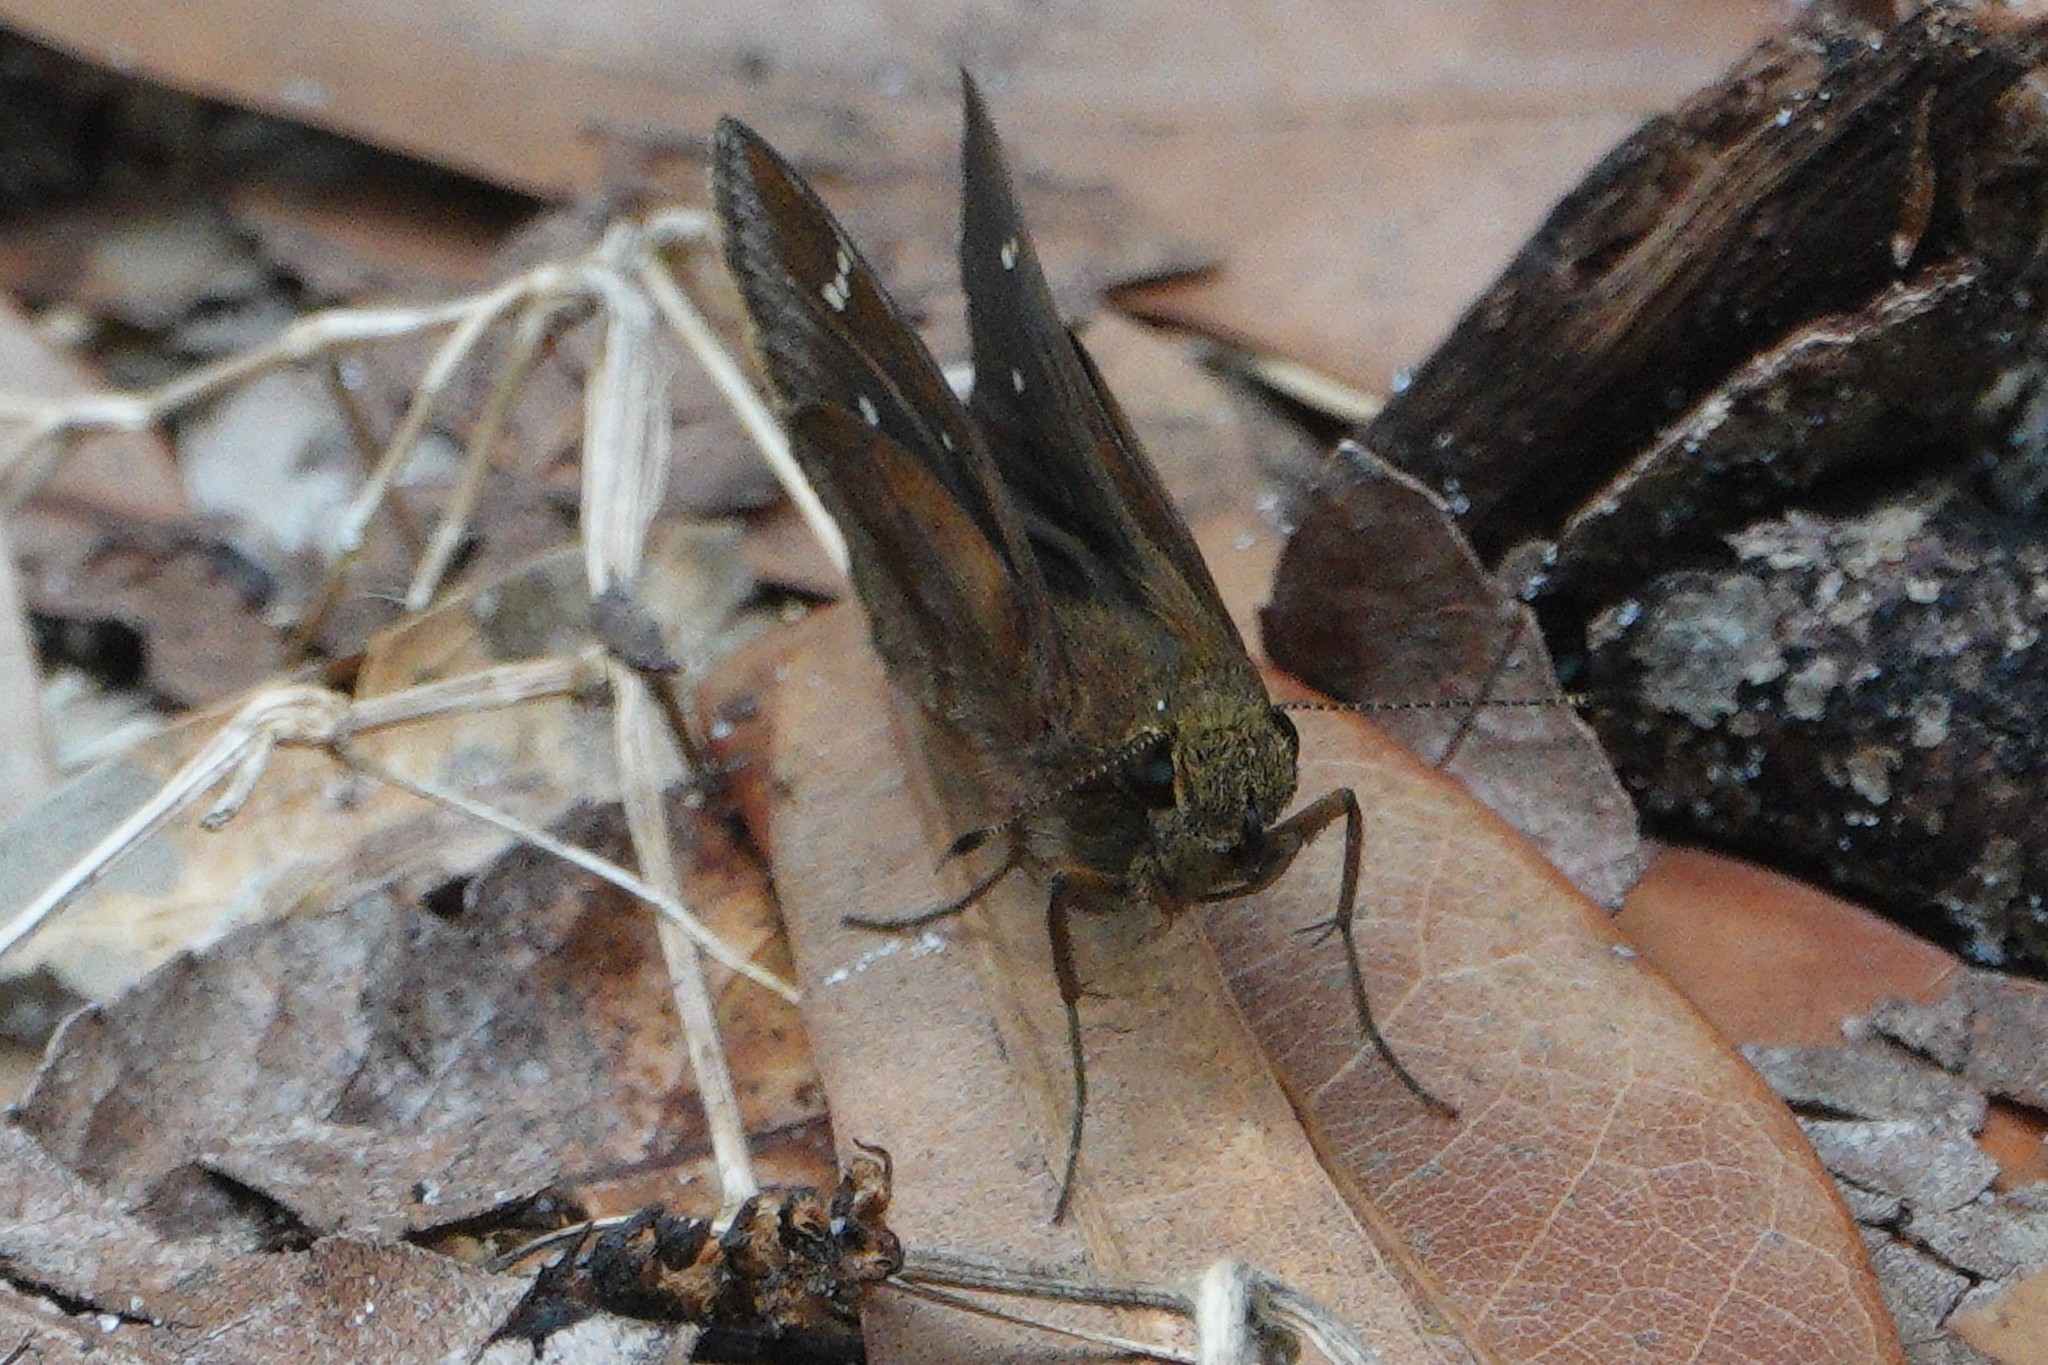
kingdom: Animalia
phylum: Arthropoda
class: Insecta
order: Lepidoptera
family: Hesperiidae
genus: Lerema
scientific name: Lerema accius
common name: Clouded skipper
